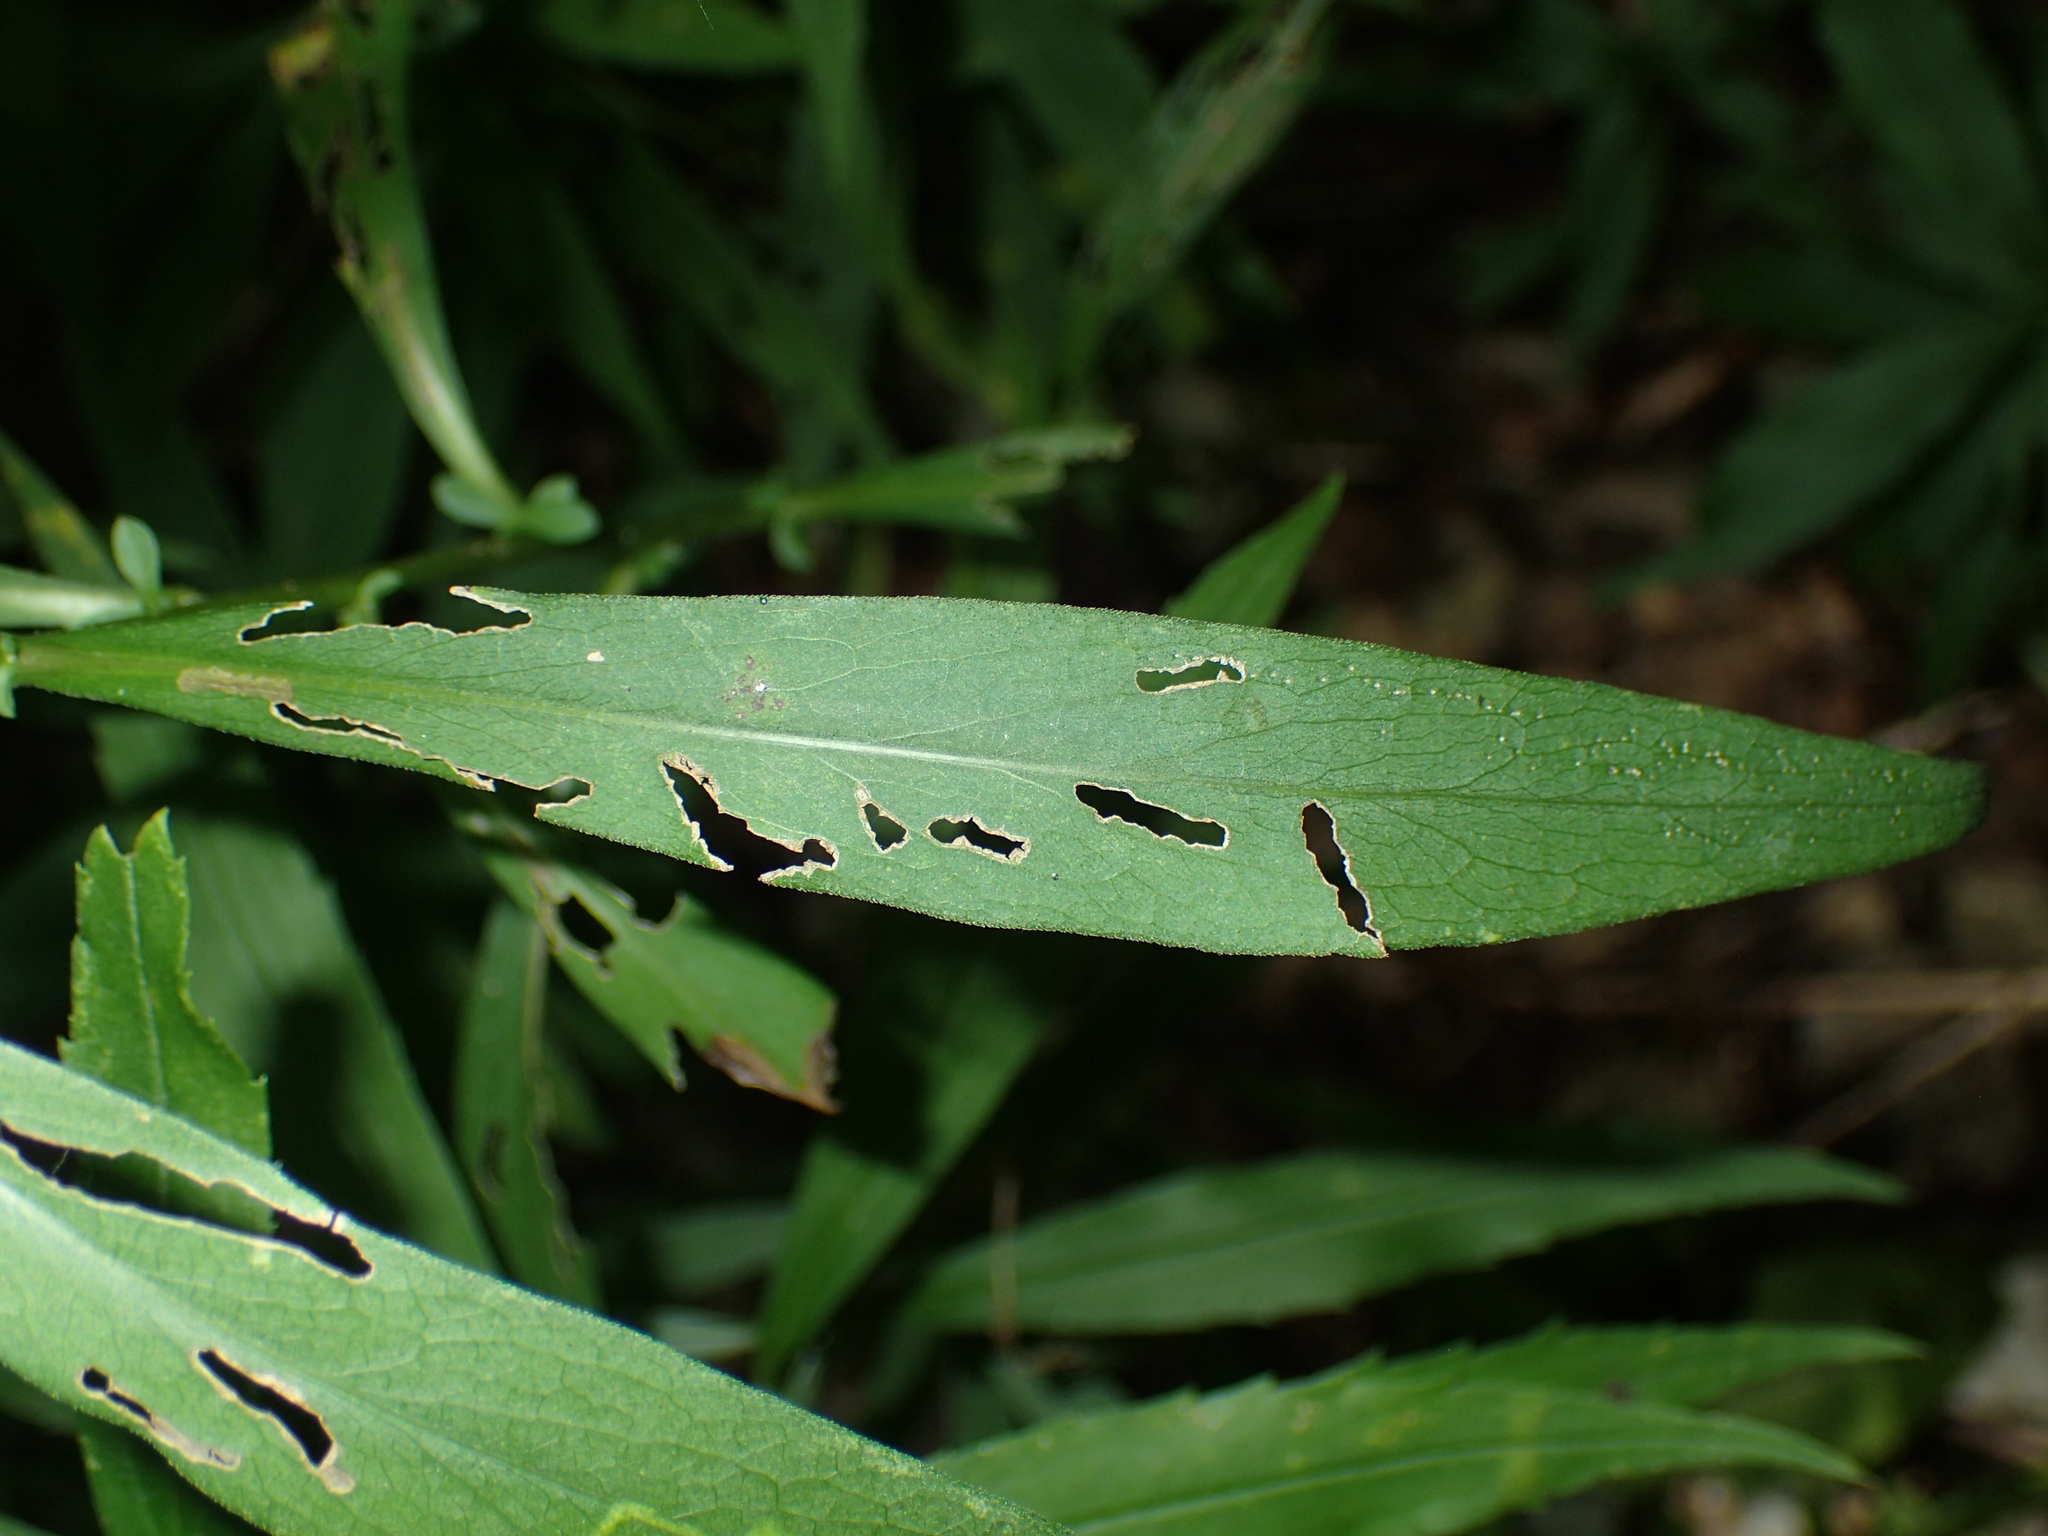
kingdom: Plantae
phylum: Tracheophyta
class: Magnoliopsida
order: Asterales
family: Asteraceae
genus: Symphyotrichum
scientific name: Symphyotrichum lanceolatum
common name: Panicled aster
